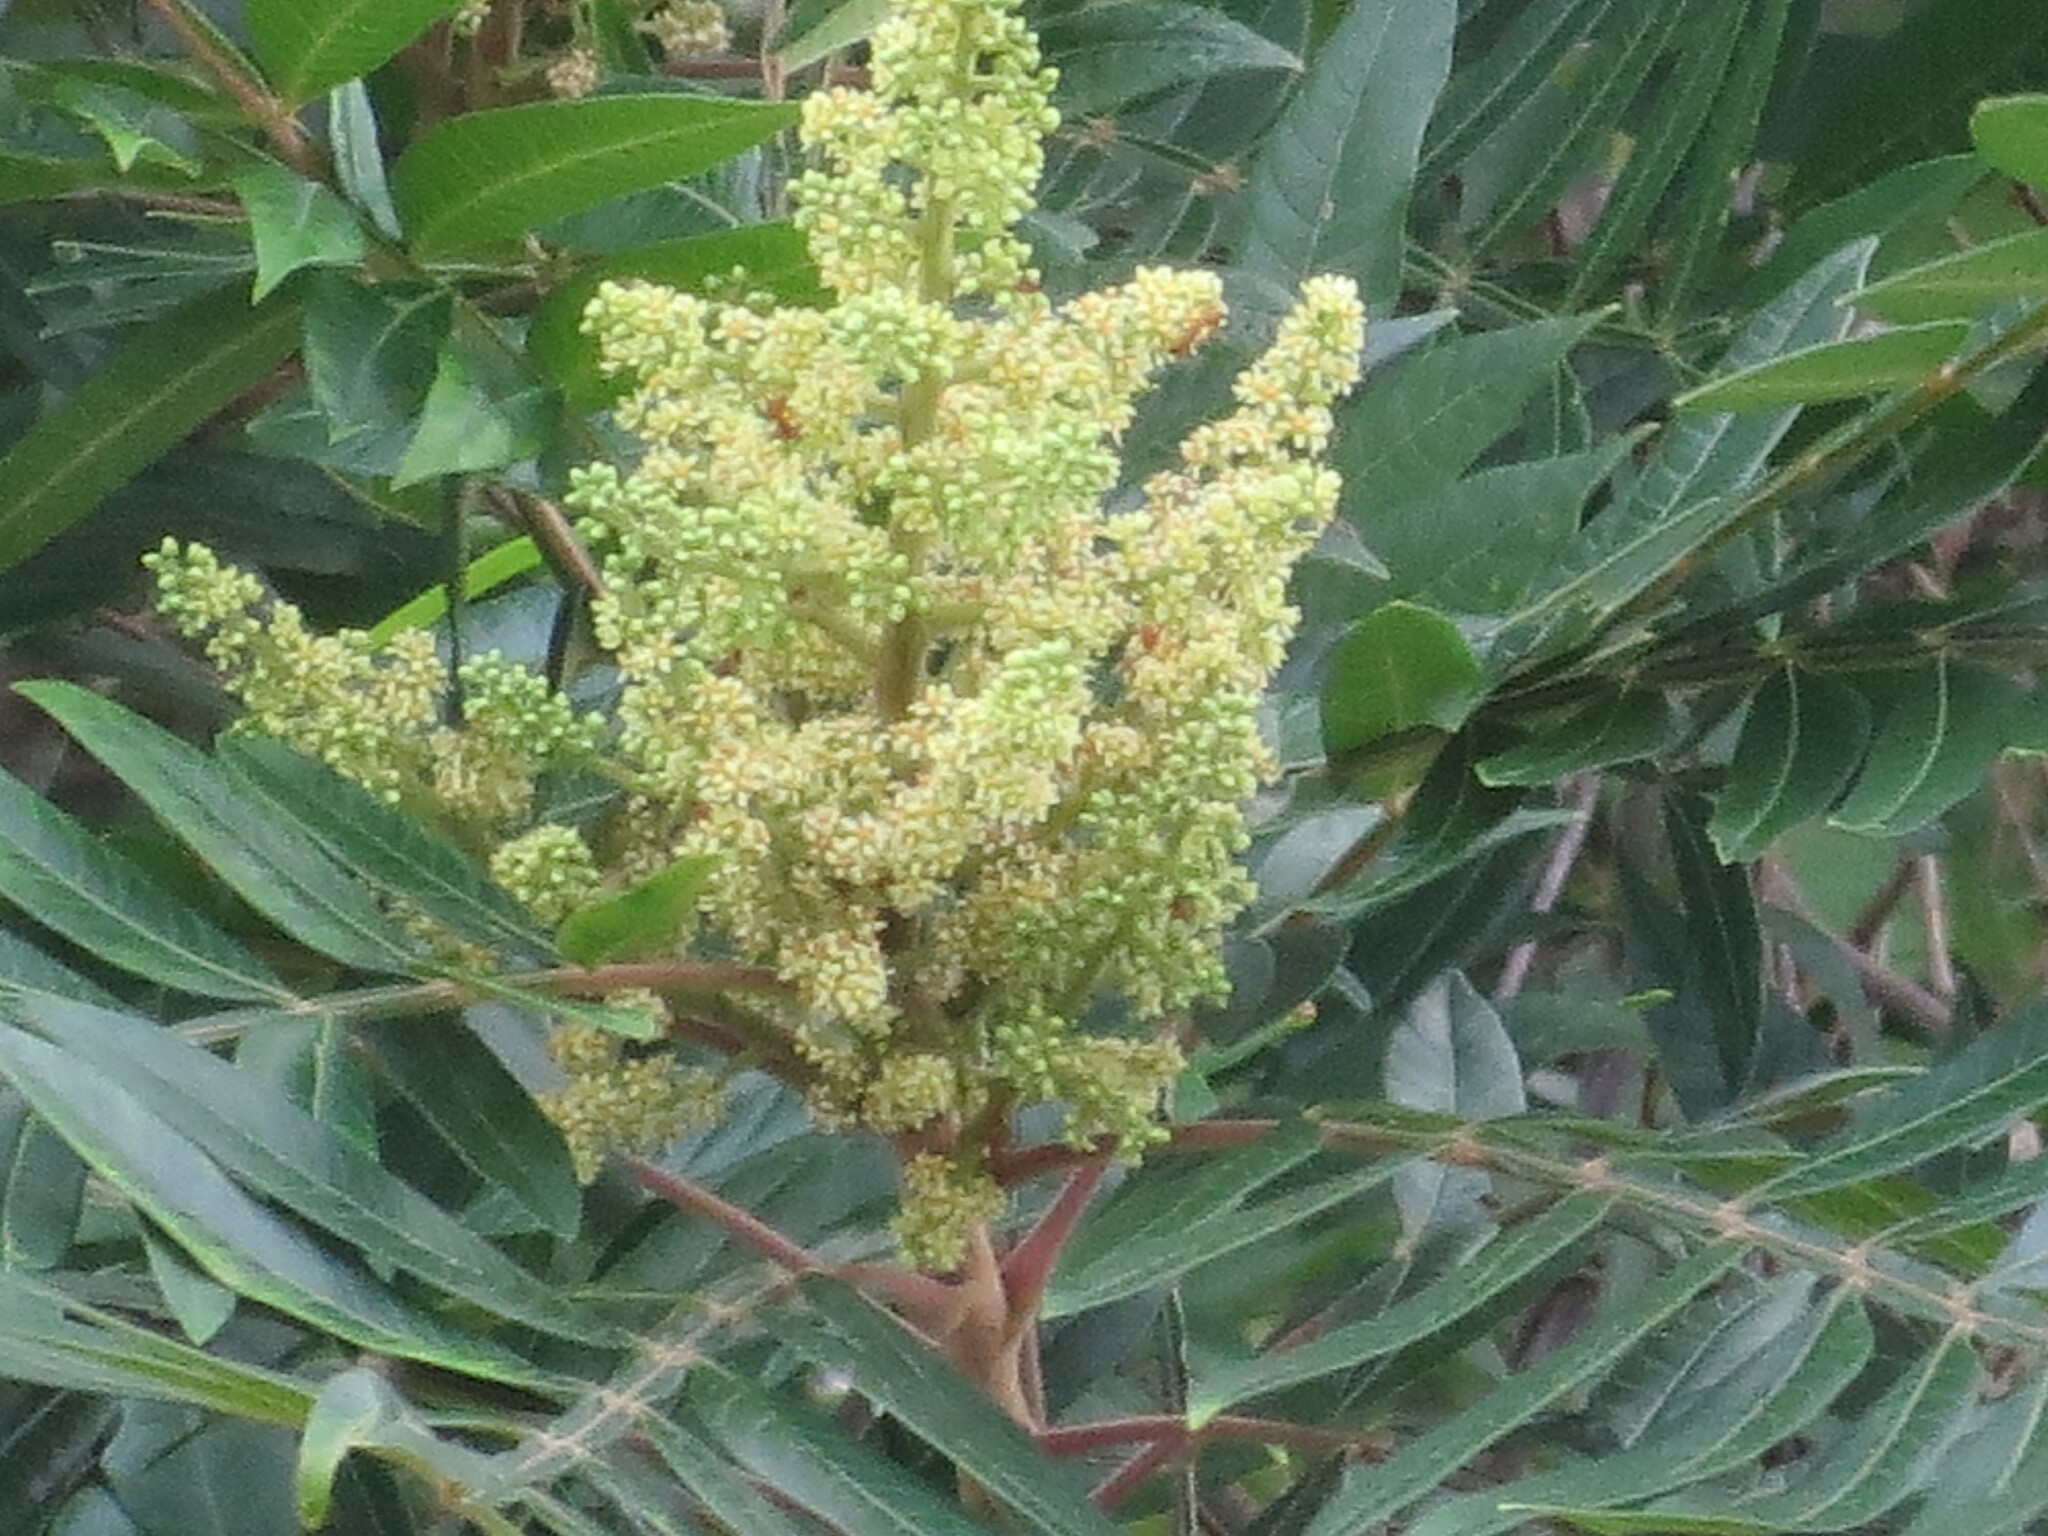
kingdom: Plantae
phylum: Tracheophyta
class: Magnoliopsida
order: Sapindales
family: Anacardiaceae
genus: Rhus
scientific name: Rhus copallina
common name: Shining sumac
